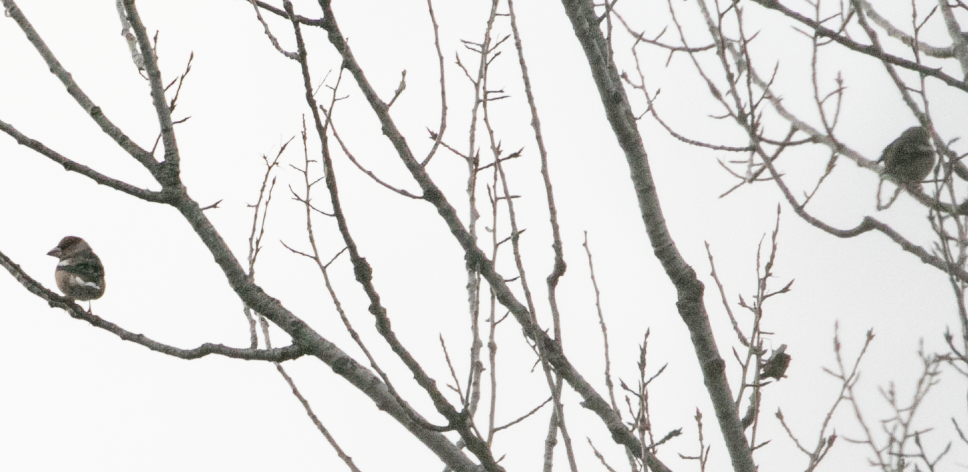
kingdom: Animalia
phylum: Chordata
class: Aves
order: Passeriformes
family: Fringillidae
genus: Coccothraustes
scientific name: Coccothraustes coccothraustes
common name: Hawfinch
